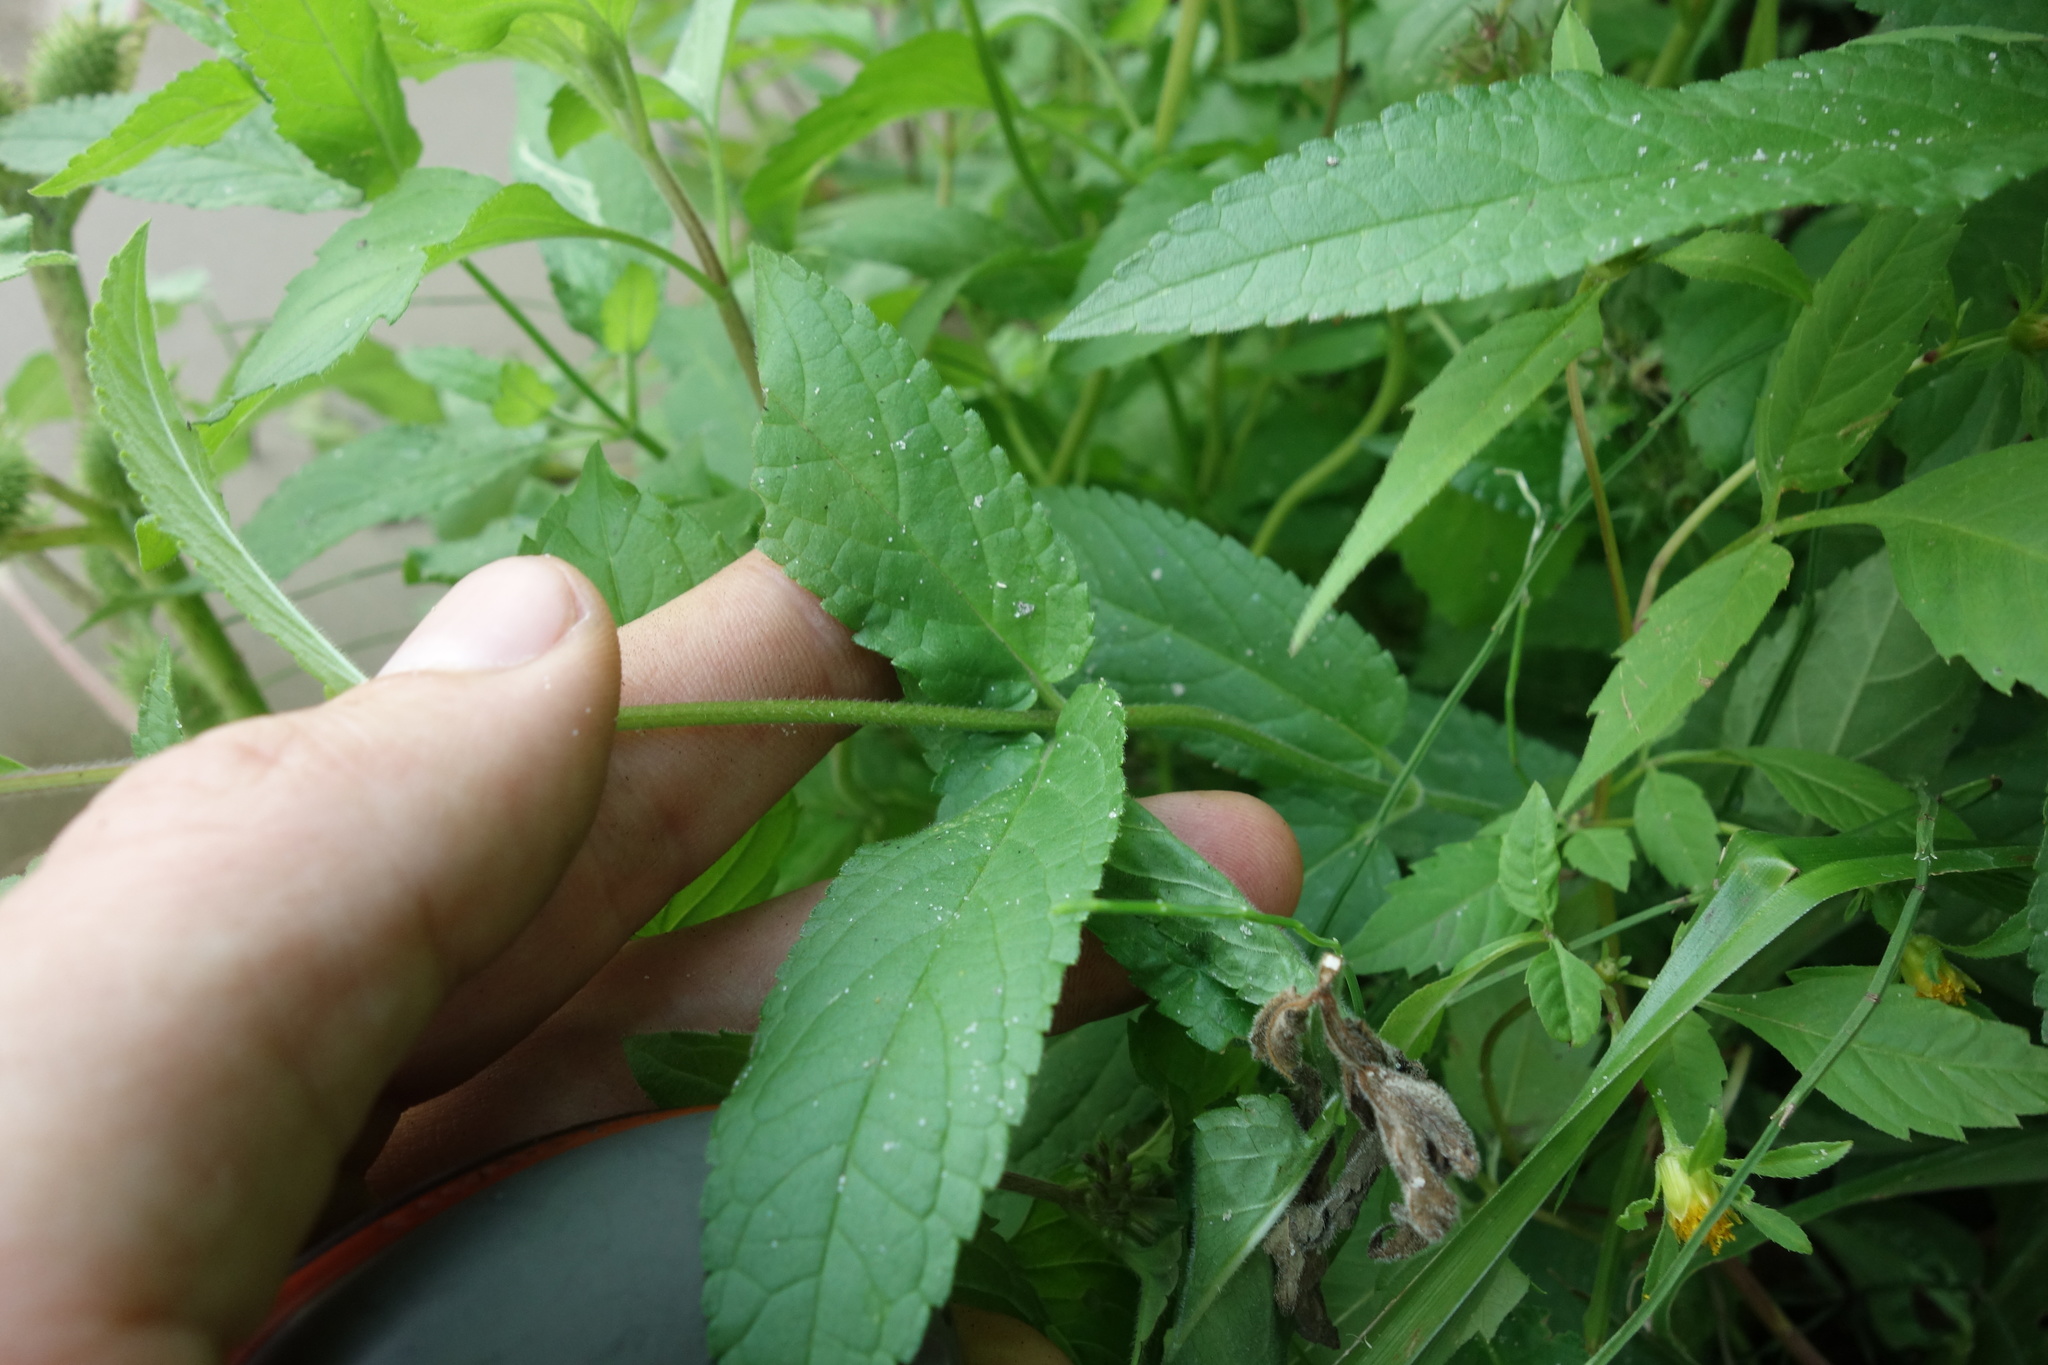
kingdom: Plantae
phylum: Tracheophyta
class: Magnoliopsida
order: Lamiales
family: Lamiaceae
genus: Stachys
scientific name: Stachys palustris
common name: Marsh woundwort
